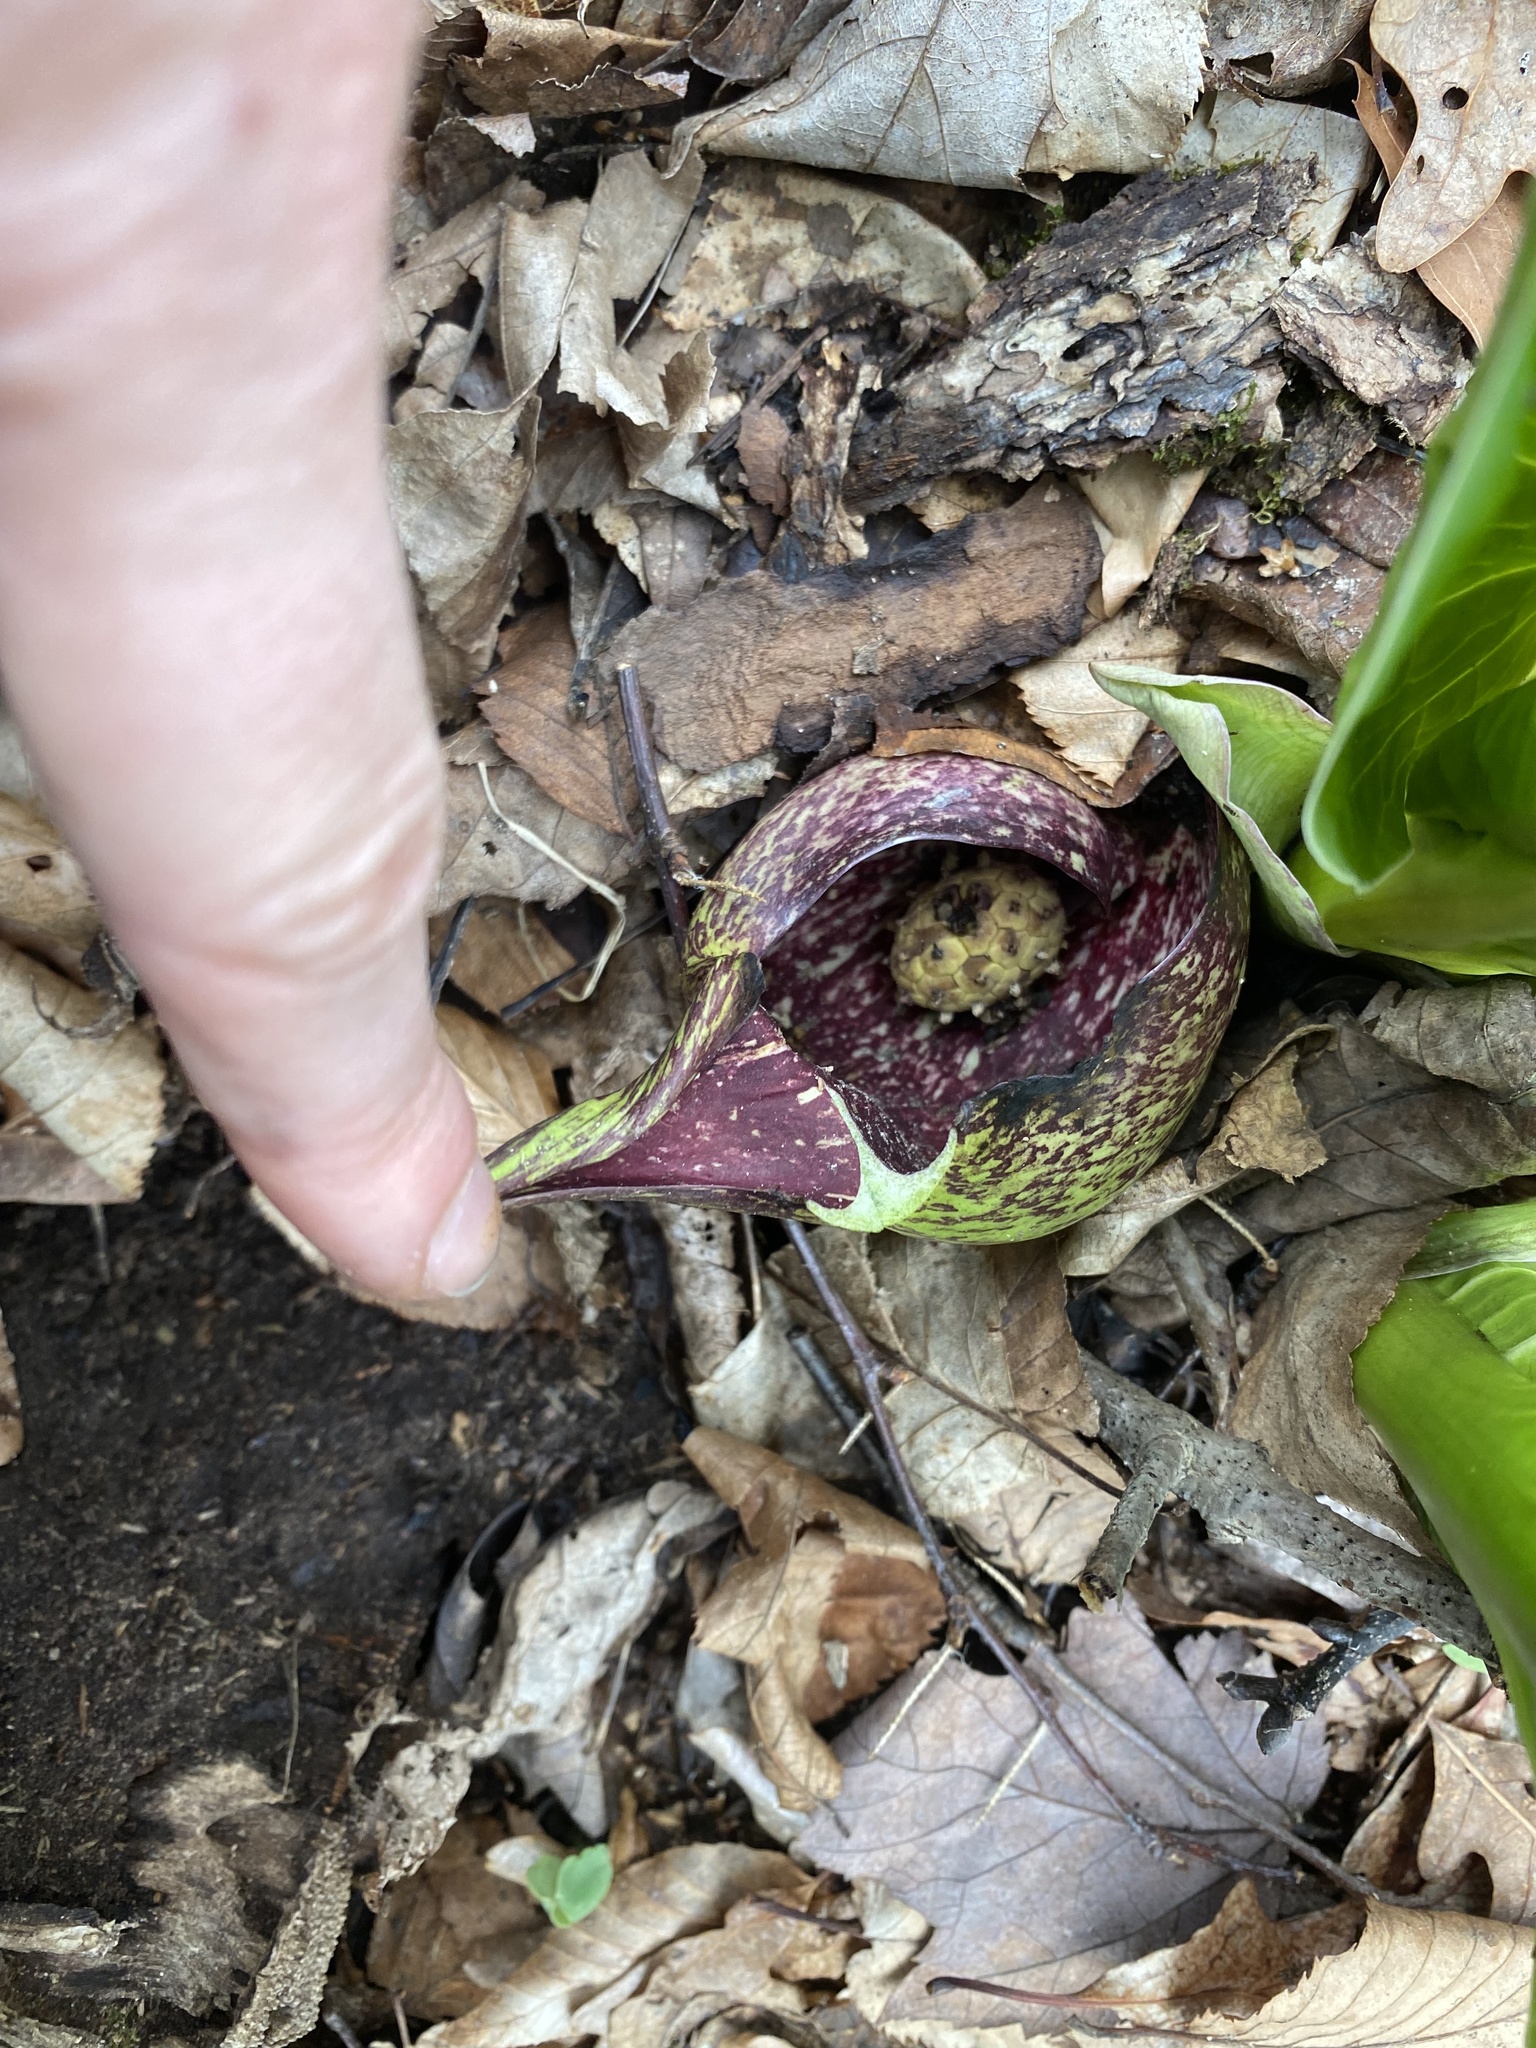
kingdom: Plantae
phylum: Tracheophyta
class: Liliopsida
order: Alismatales
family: Araceae
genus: Symplocarpus
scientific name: Symplocarpus foetidus
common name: Eastern skunk cabbage
